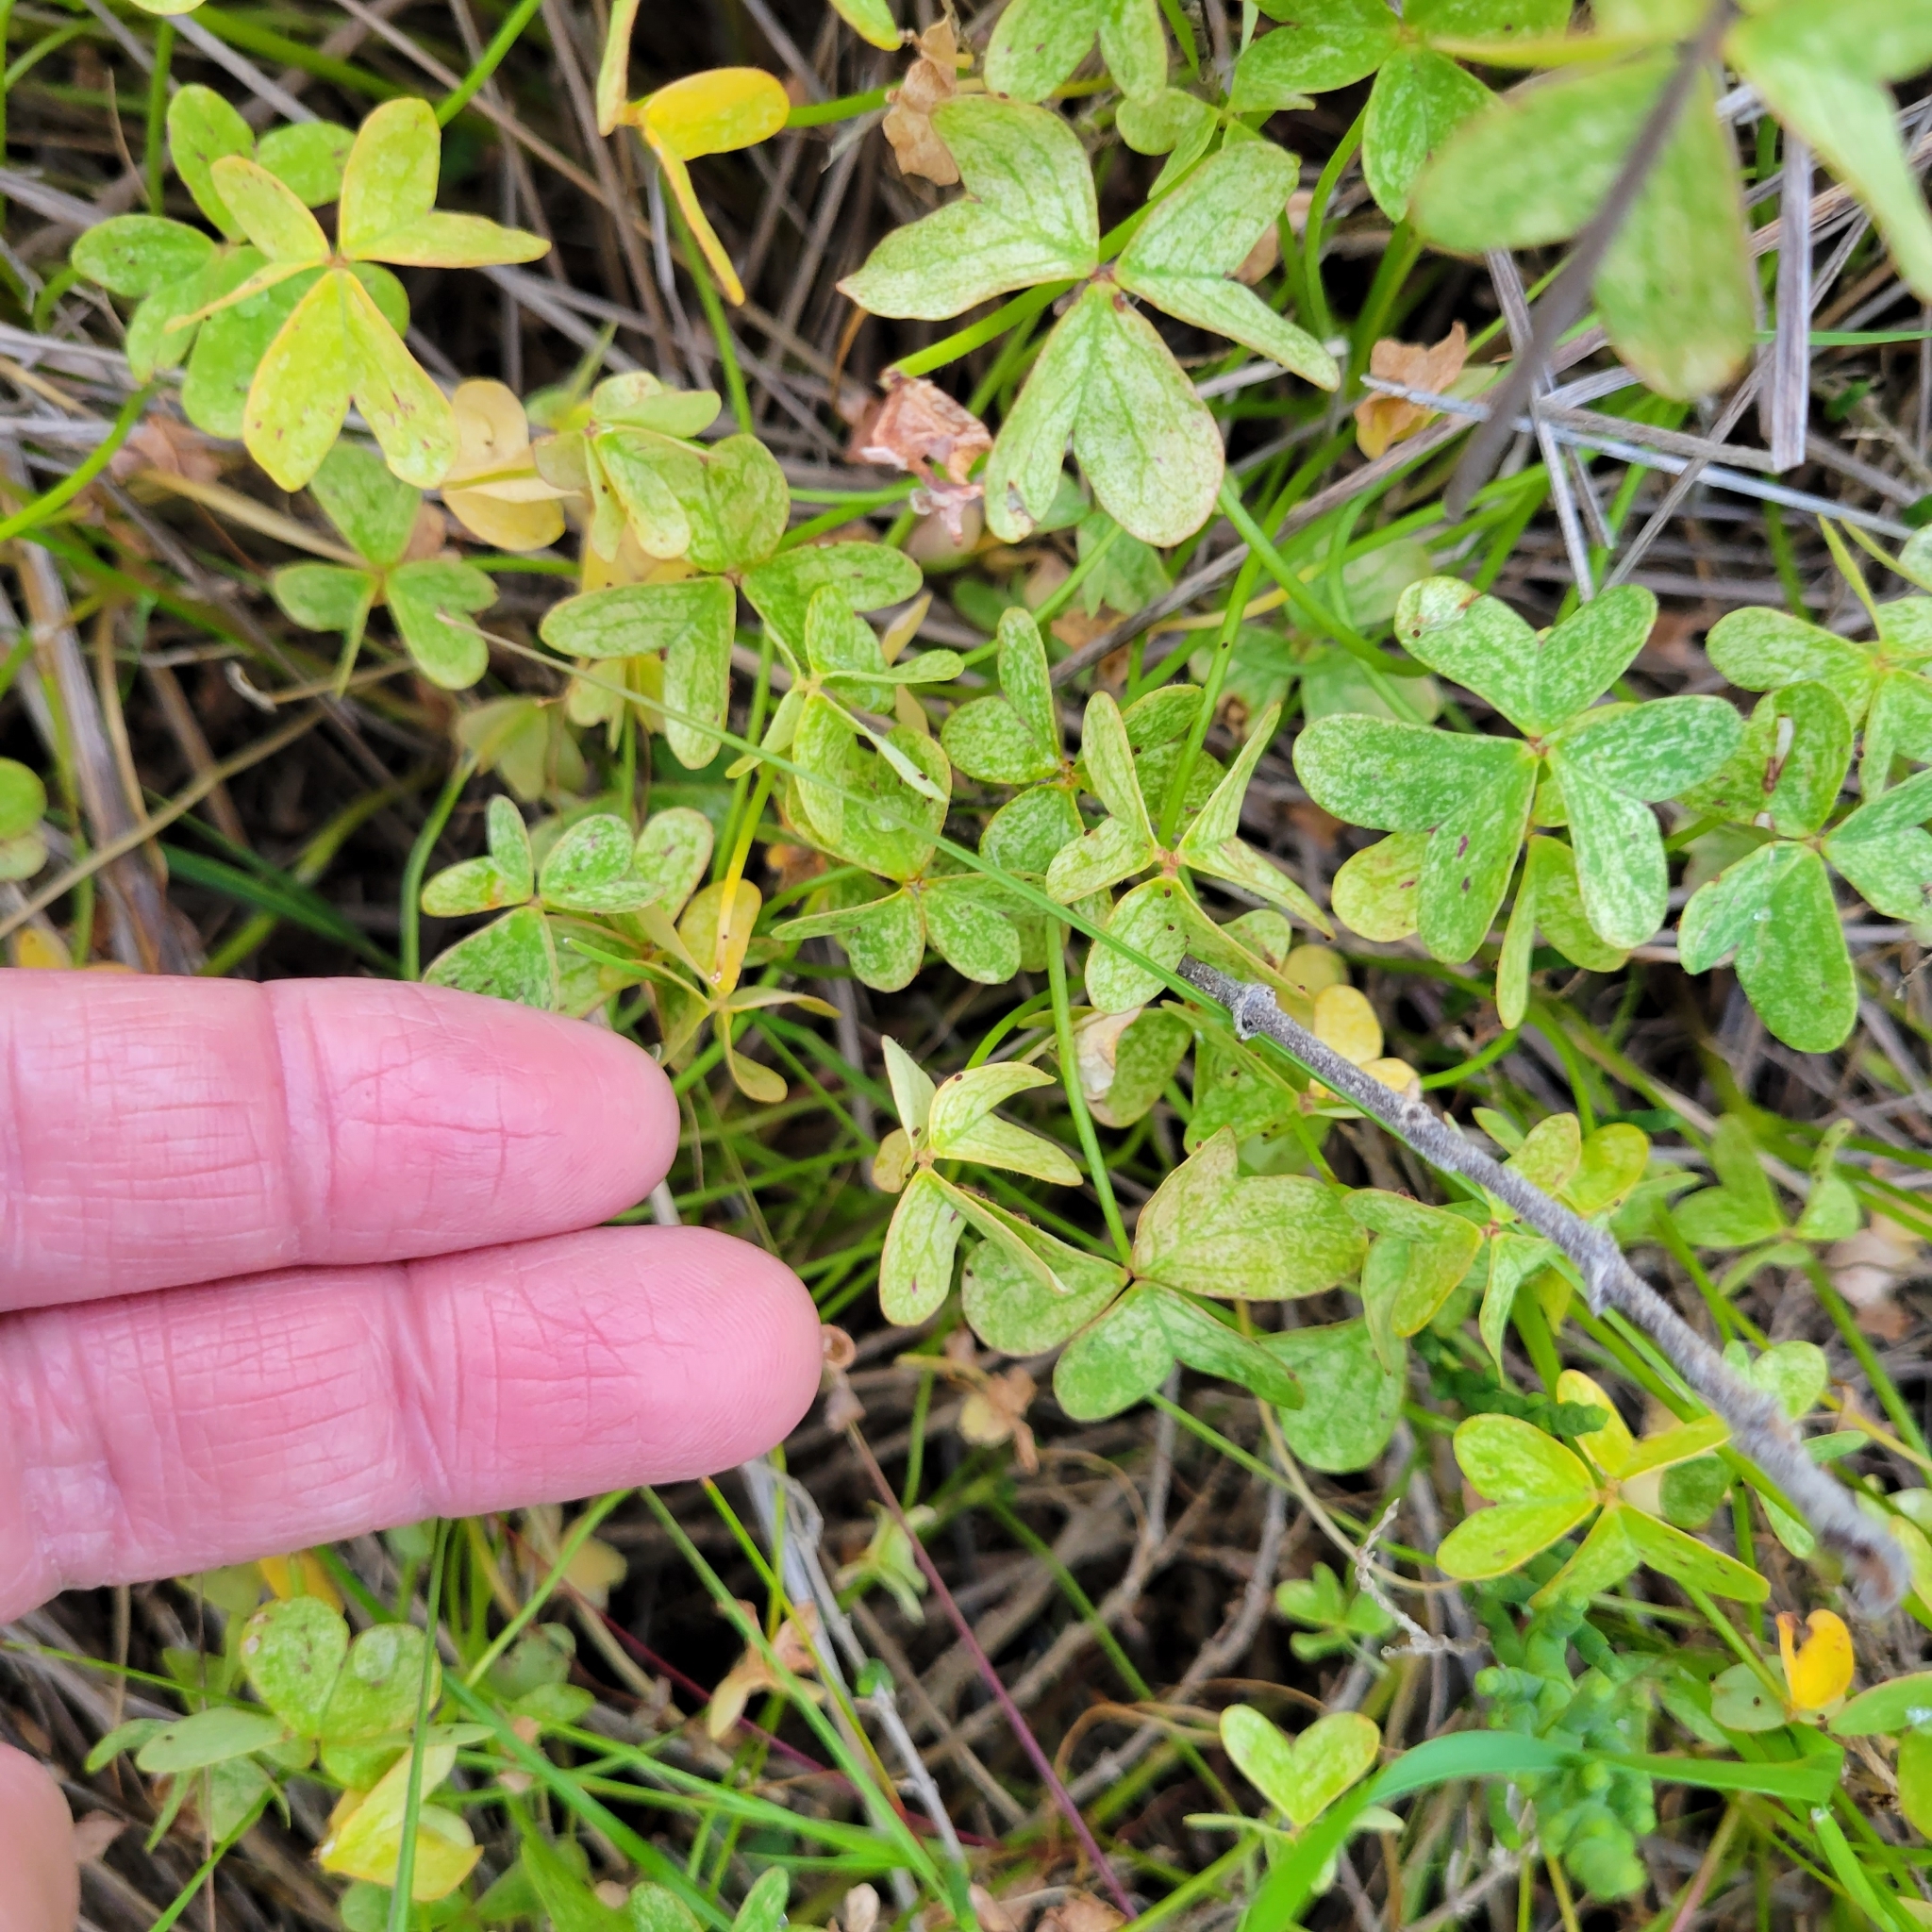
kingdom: Plantae
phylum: Tracheophyta
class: Magnoliopsida
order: Oxalidales
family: Oxalidaceae
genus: Oxalis
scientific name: Oxalis pes-caprae
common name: Bermuda-buttercup
